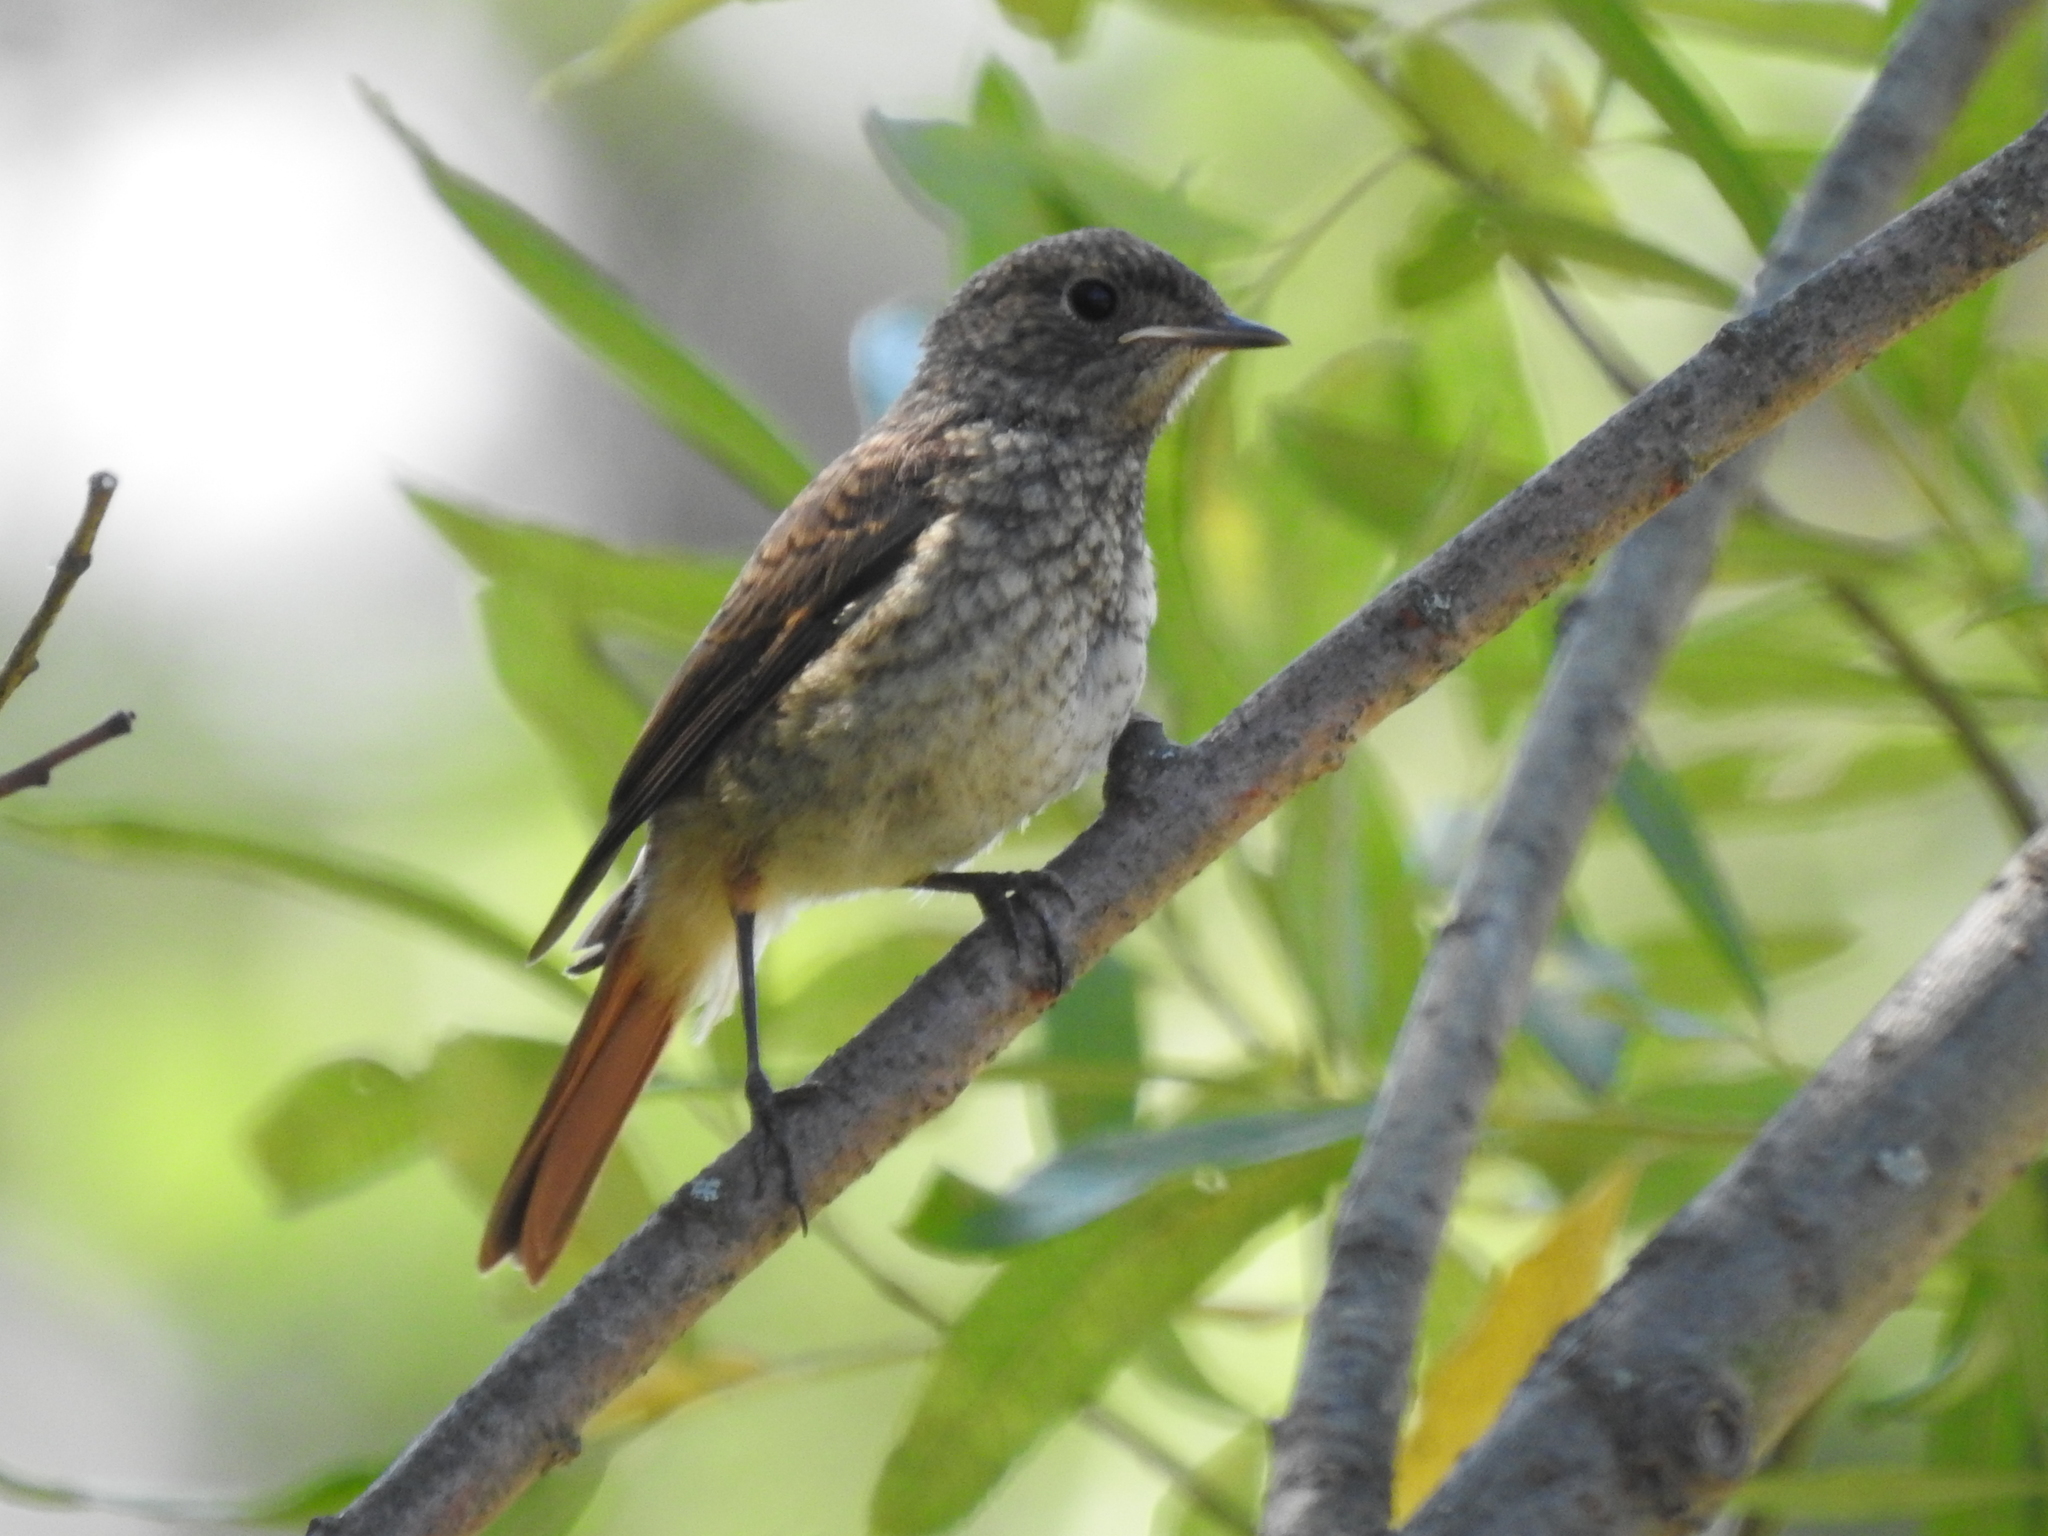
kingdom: Animalia
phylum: Chordata
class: Aves
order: Passeriformes
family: Muscicapidae
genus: Phoenicurus
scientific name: Phoenicurus phoenicurus
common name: Common redstart
